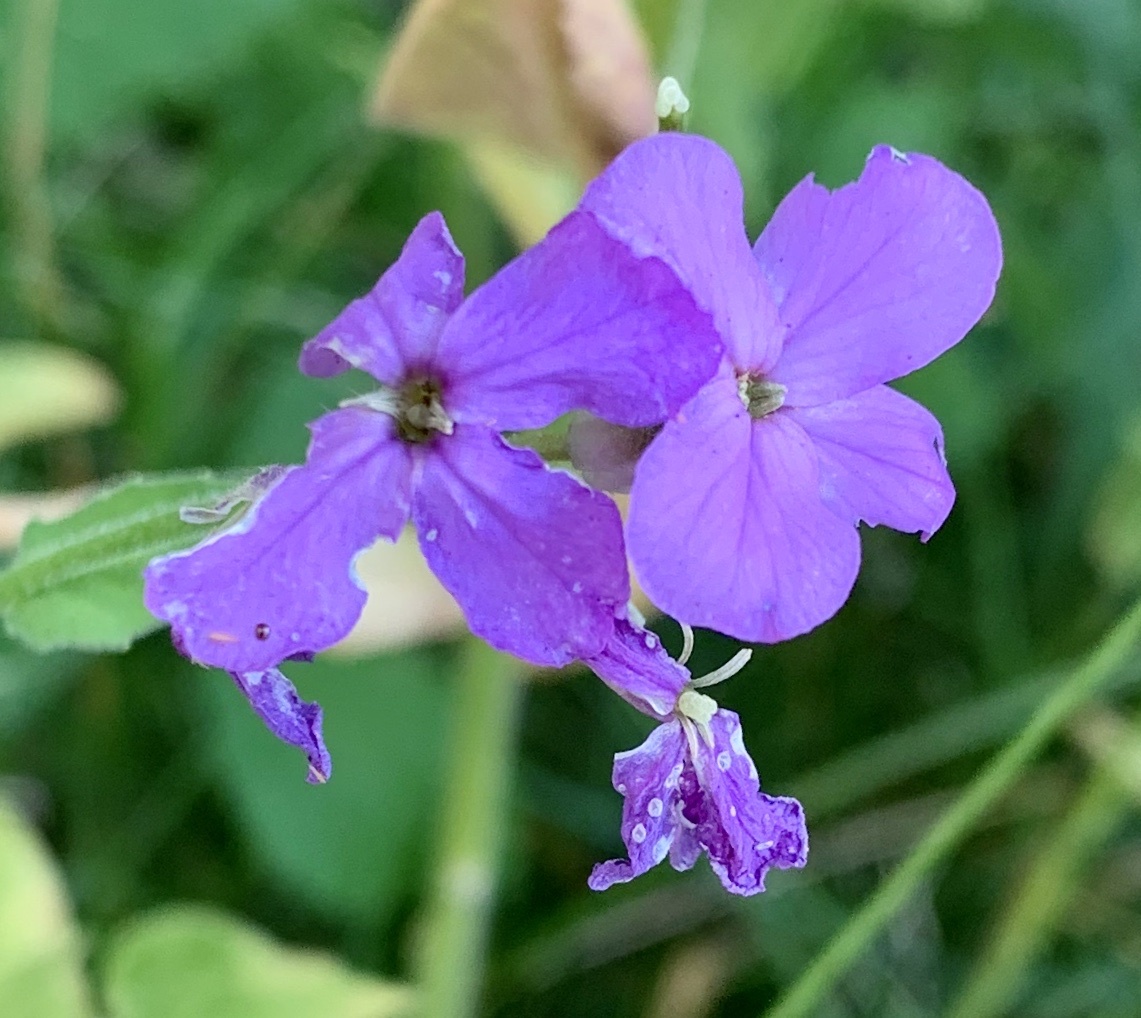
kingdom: Plantae
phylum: Tracheophyta
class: Magnoliopsida
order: Brassicales
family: Brassicaceae
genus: Hesperis
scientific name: Hesperis matronalis
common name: Dame's-violet
